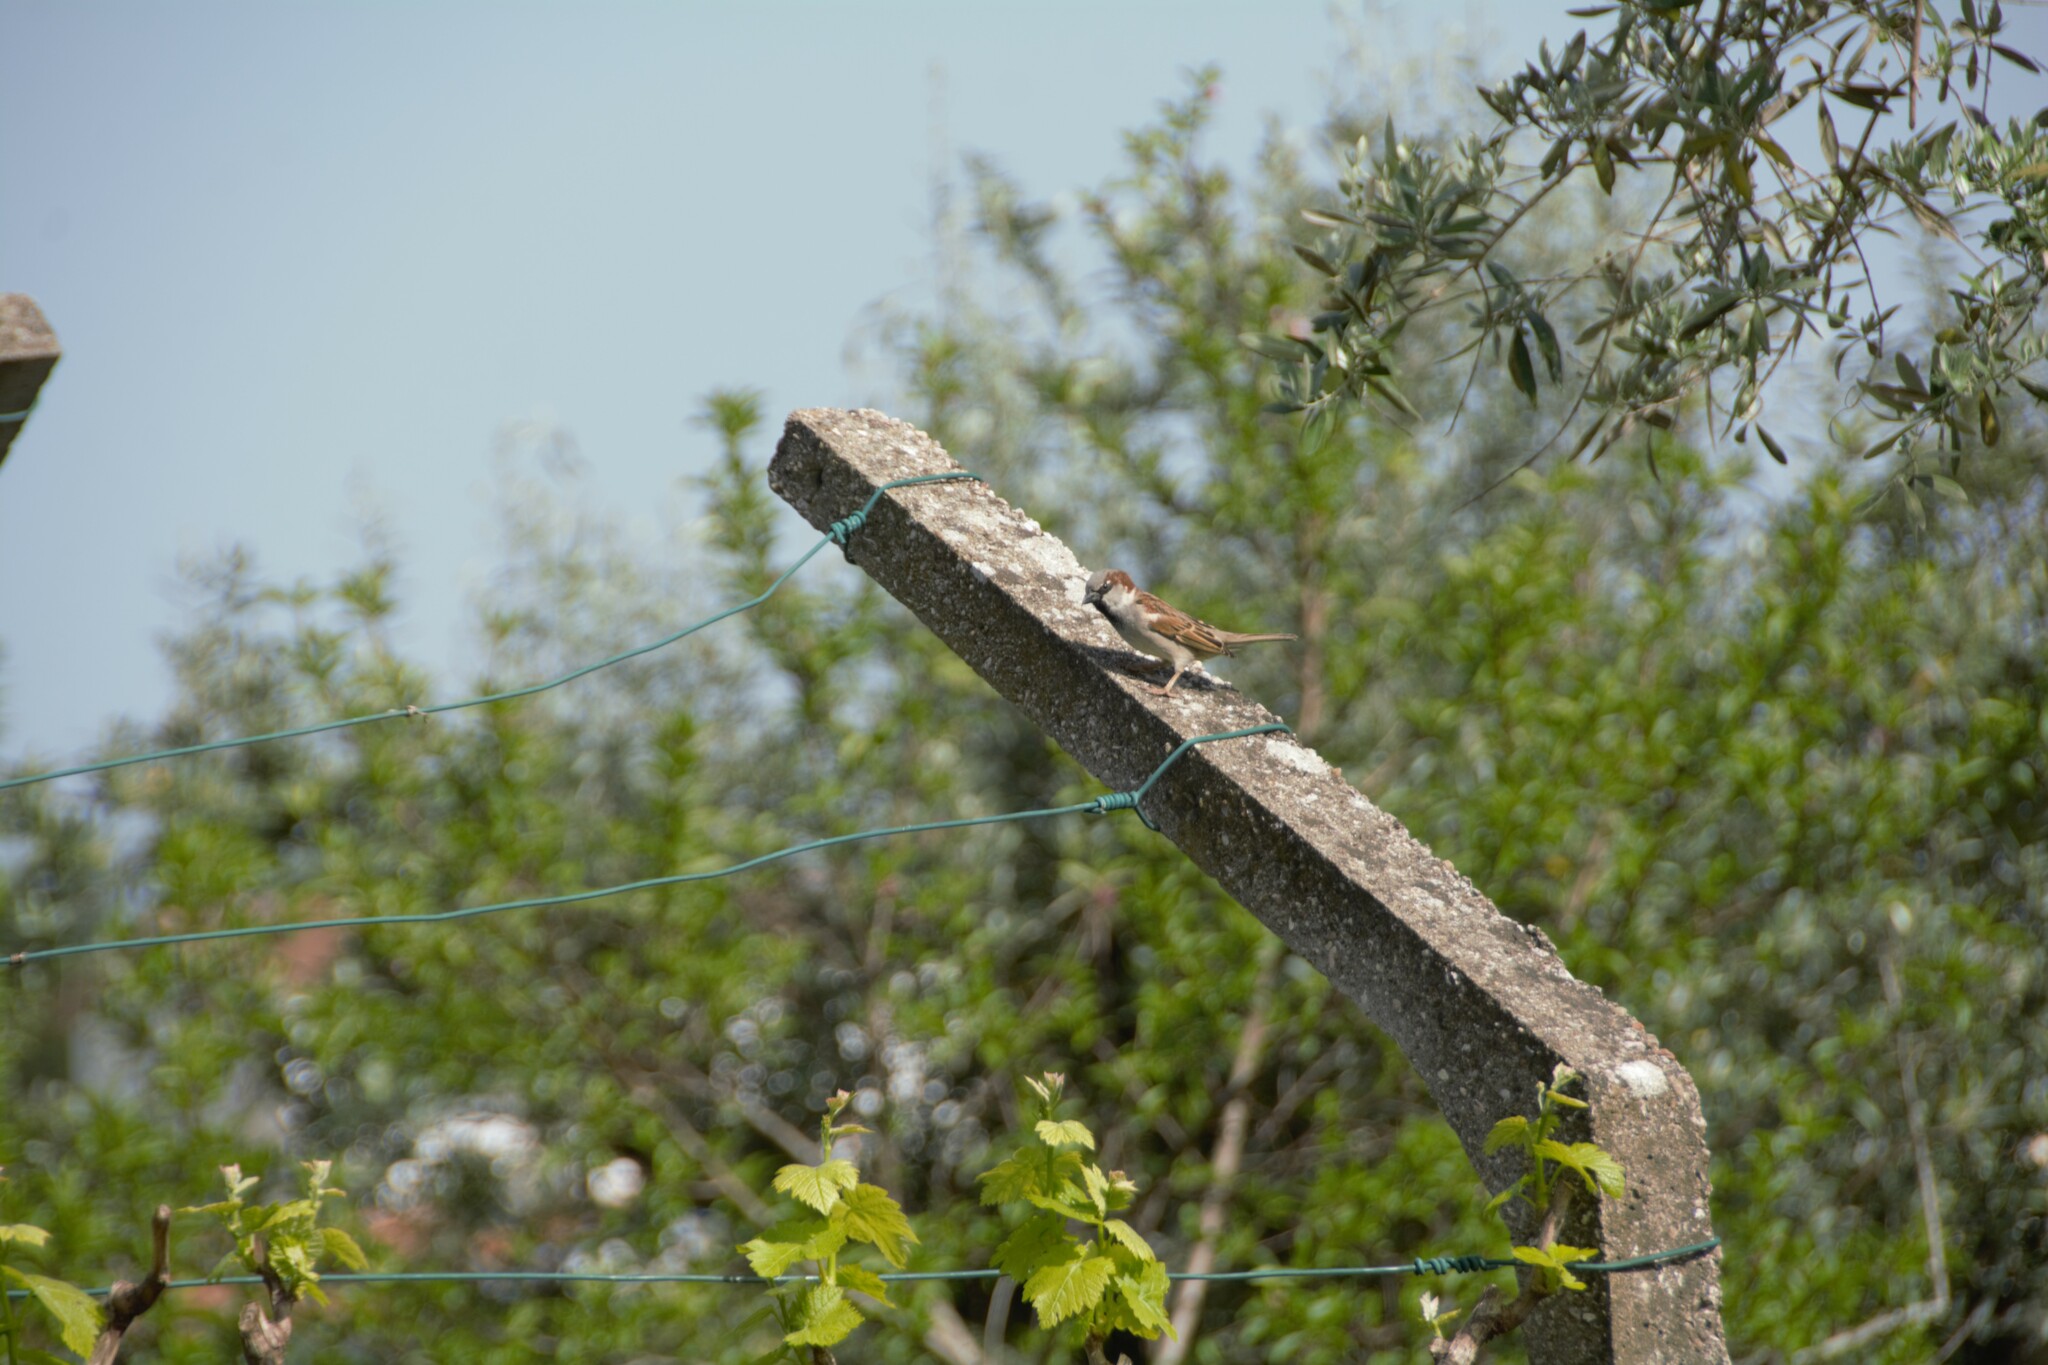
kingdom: Animalia
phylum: Chordata
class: Aves
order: Passeriformes
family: Passeridae
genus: Passer
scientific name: Passer domesticus
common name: House sparrow
